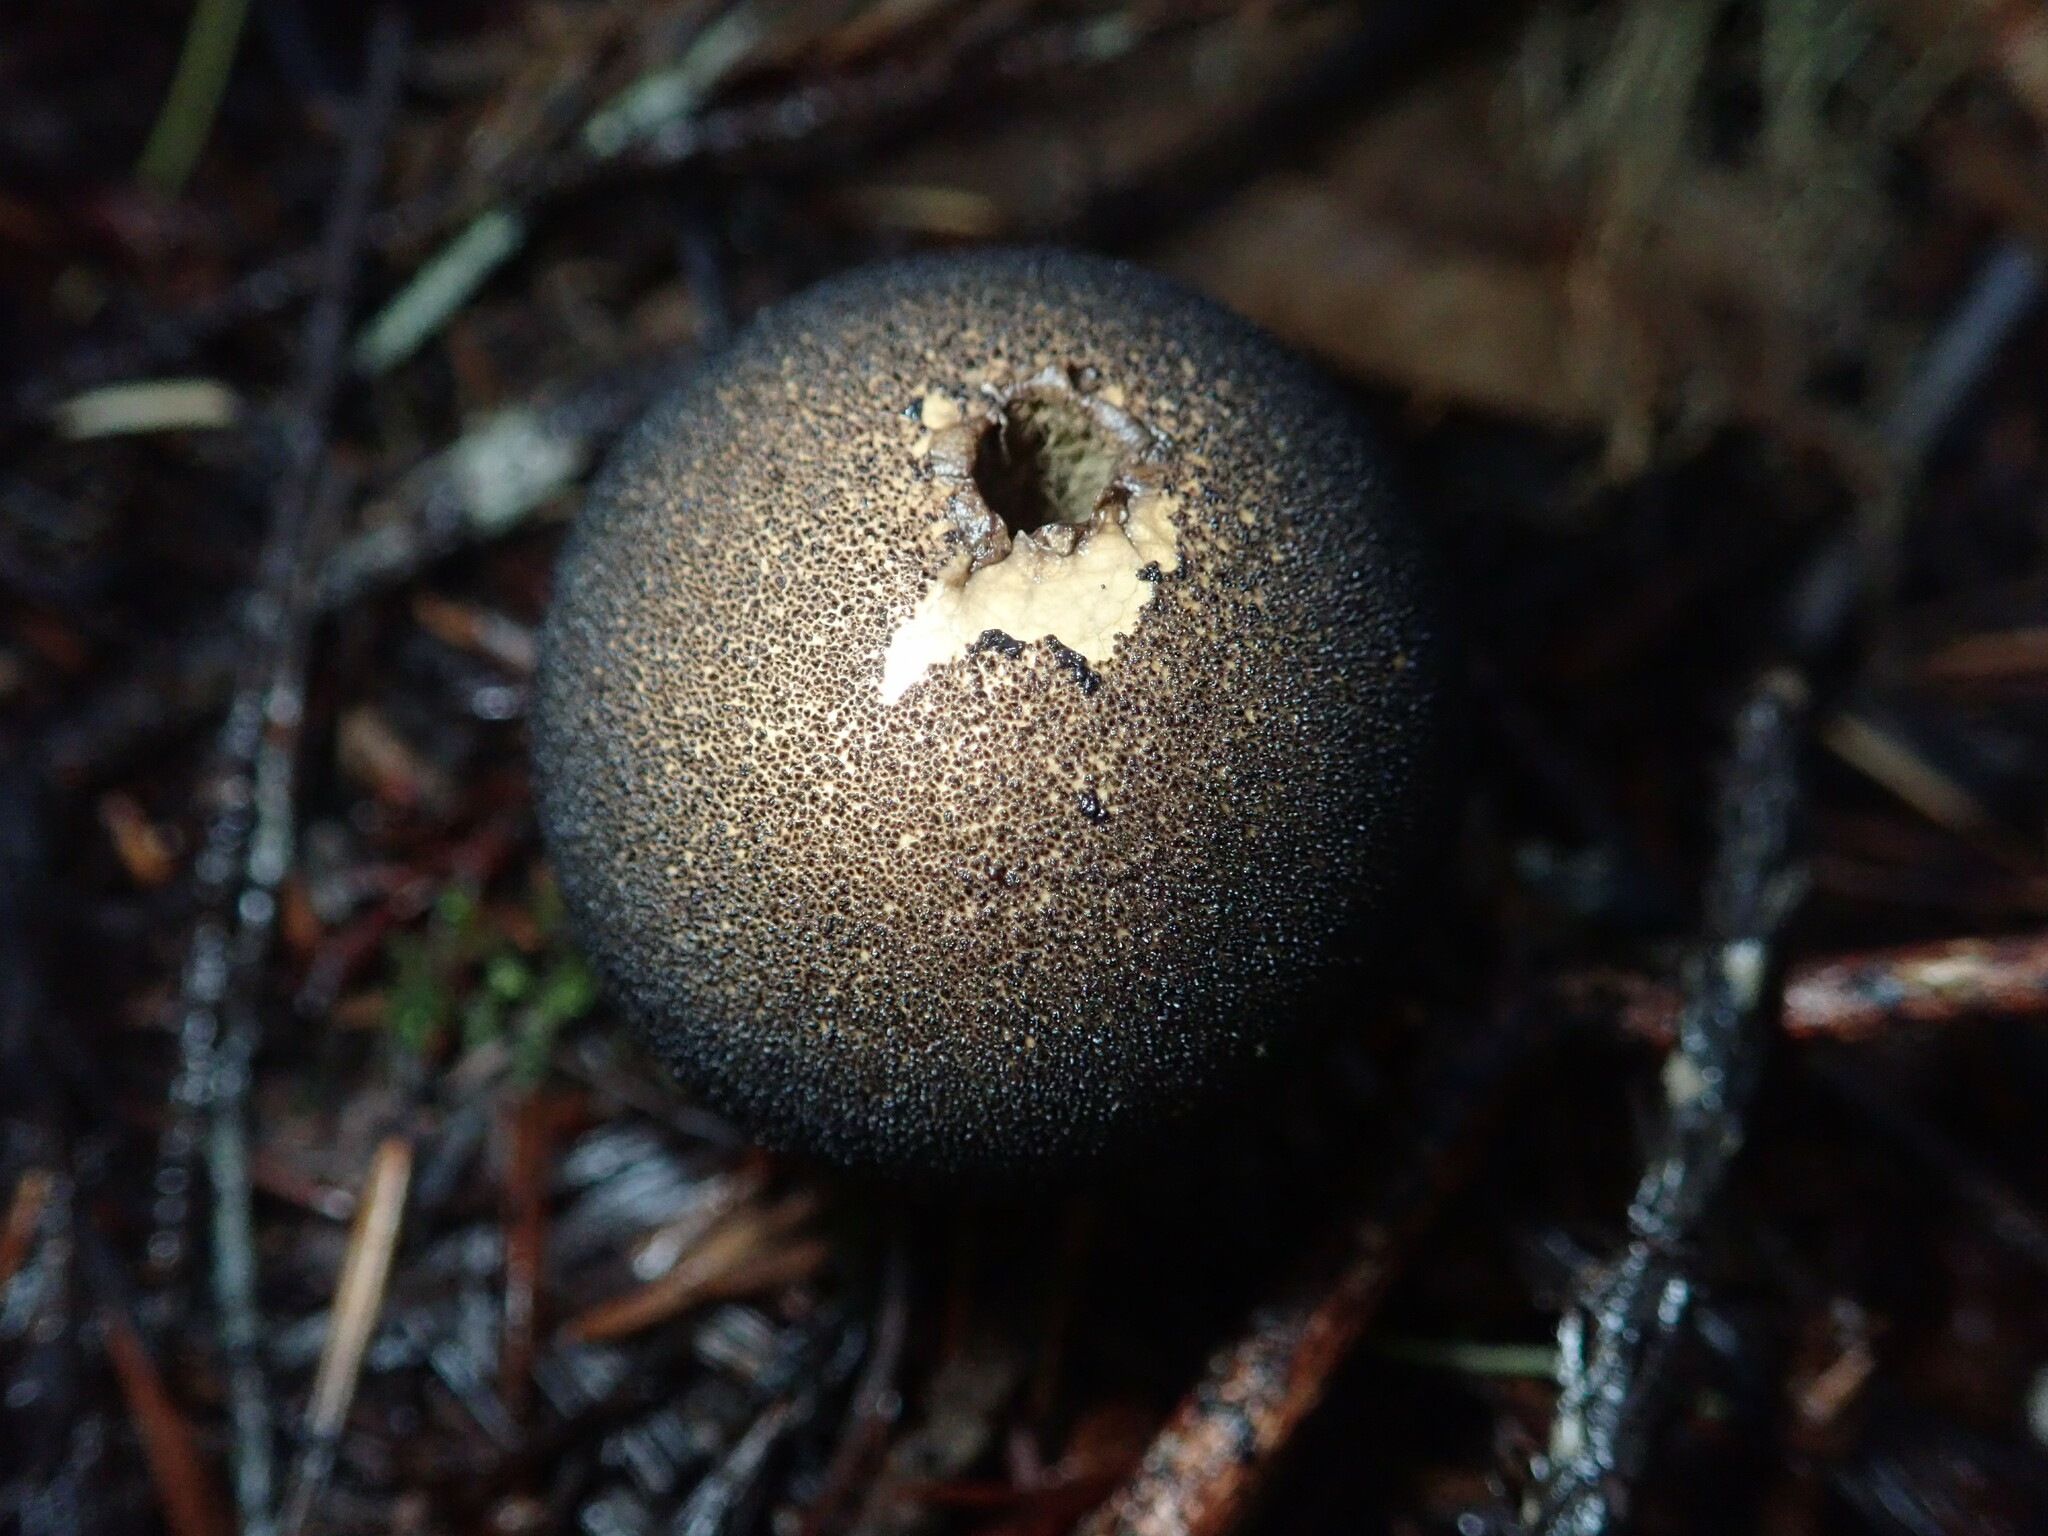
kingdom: Fungi
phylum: Basidiomycota
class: Agaricomycetes
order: Agaricales
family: Lycoperdaceae
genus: Lycoperdon
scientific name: Lycoperdon umbrinum
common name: Umber-brown puffball
